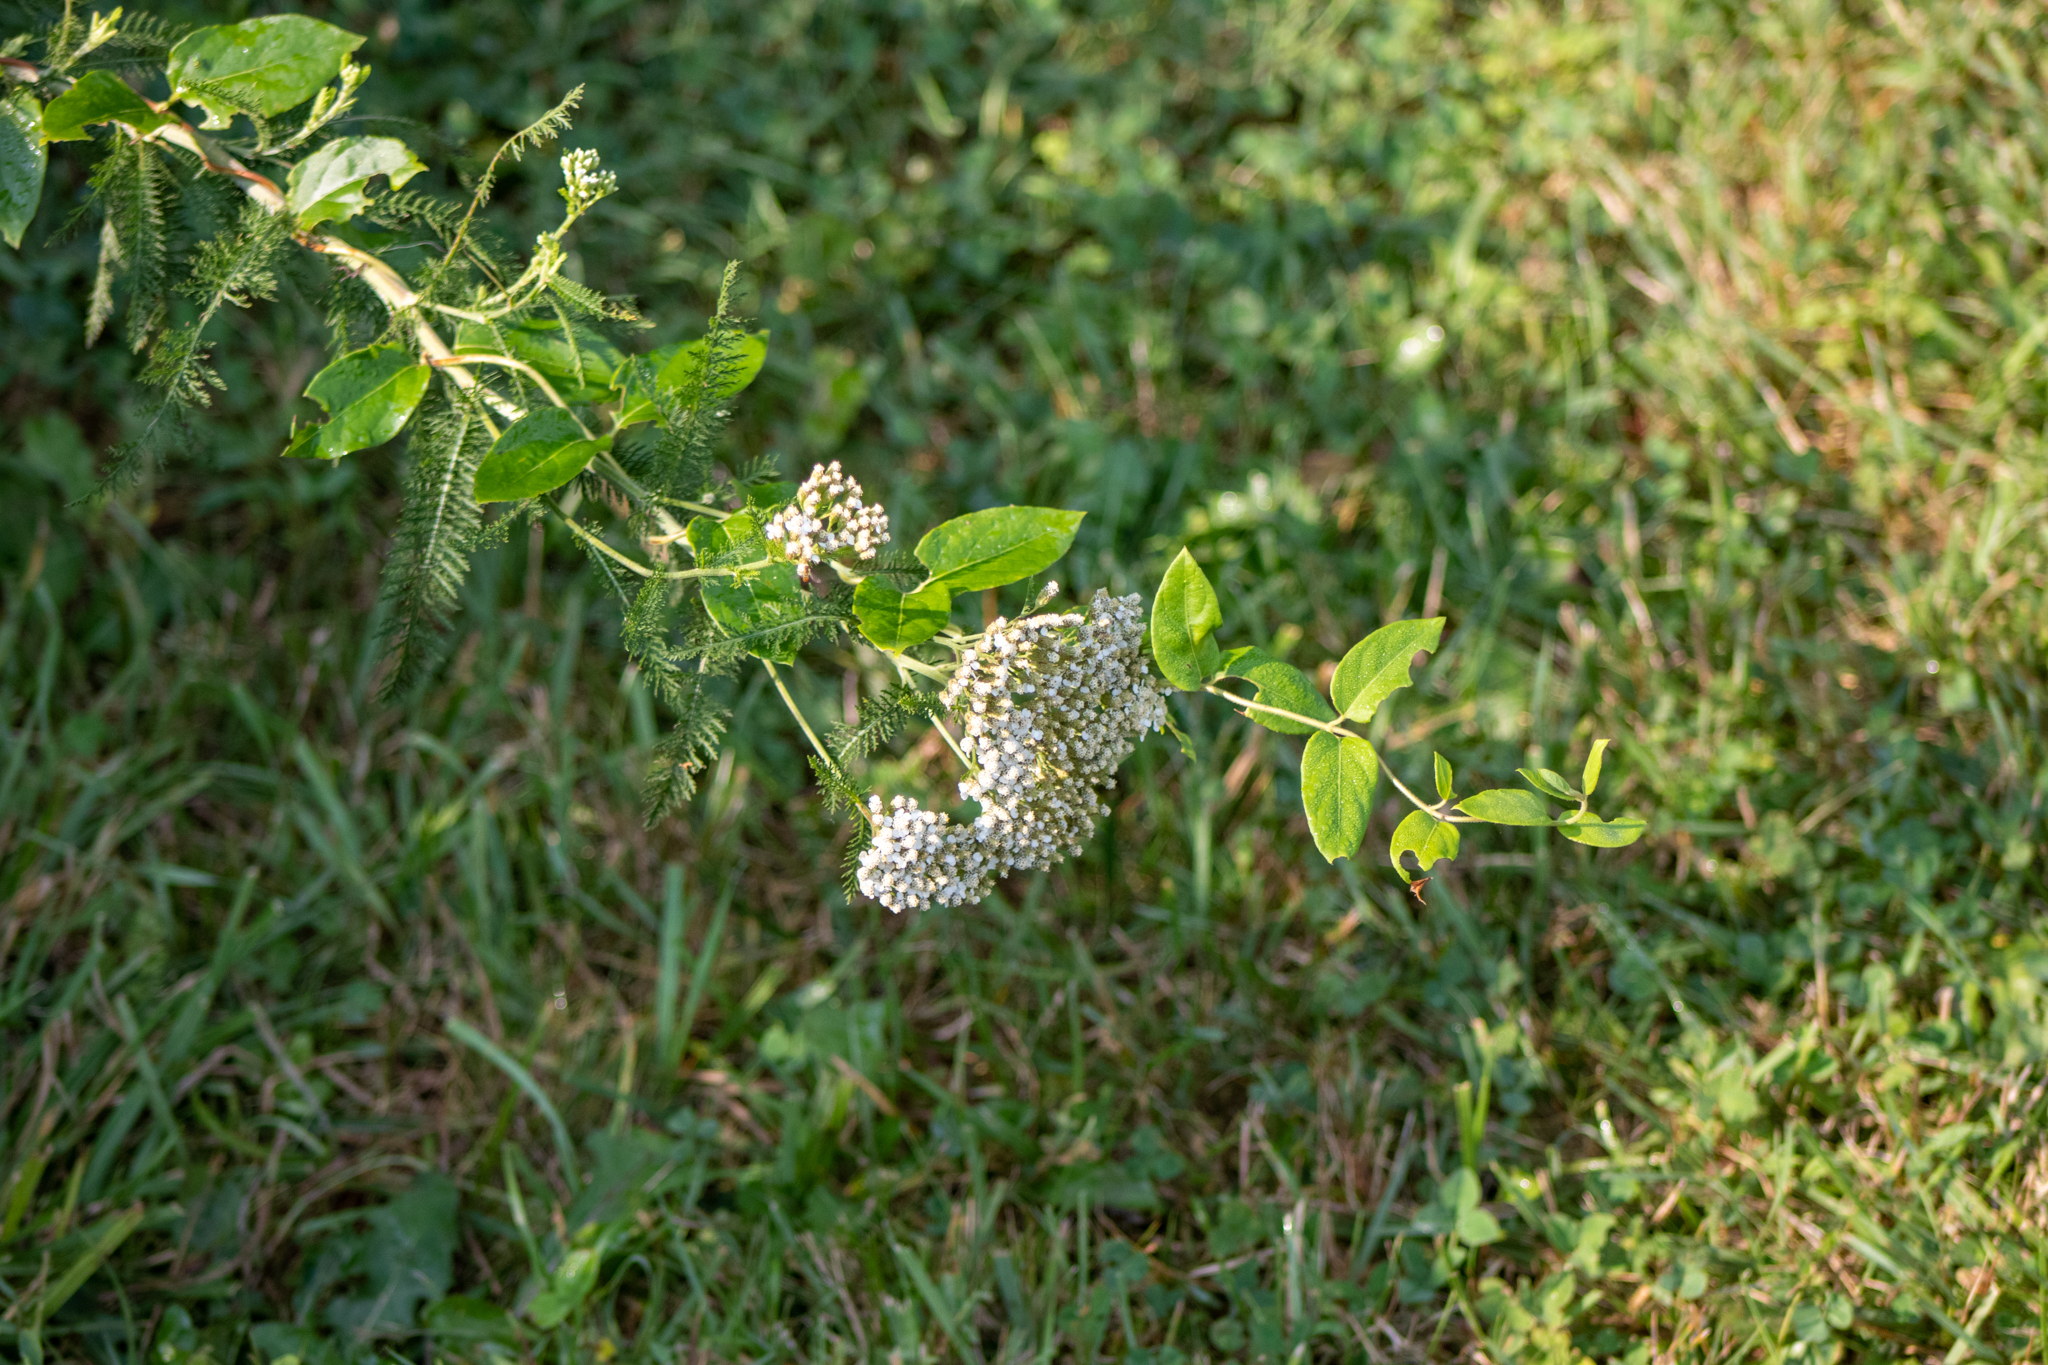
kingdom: Plantae
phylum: Tracheophyta
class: Magnoliopsida
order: Asterales
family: Asteraceae
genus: Achillea
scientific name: Achillea millefolium
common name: Yarrow
